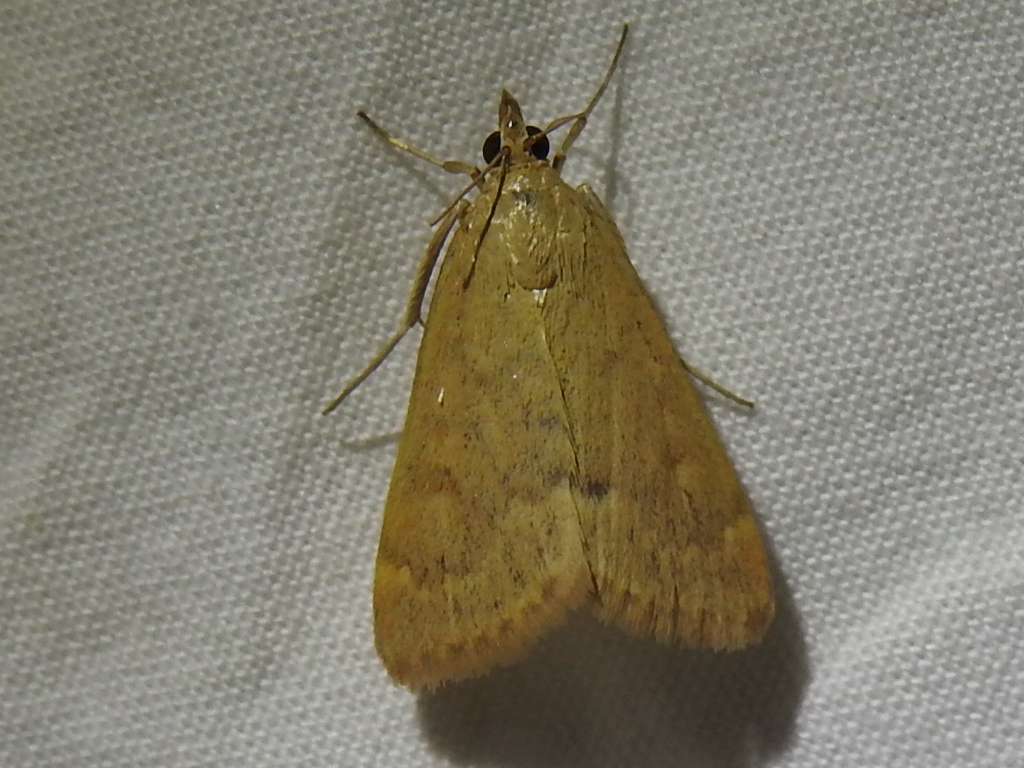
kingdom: Animalia
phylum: Arthropoda
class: Insecta
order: Lepidoptera
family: Crambidae
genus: Achyra
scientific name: Achyra rantalis
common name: Garden webworm
